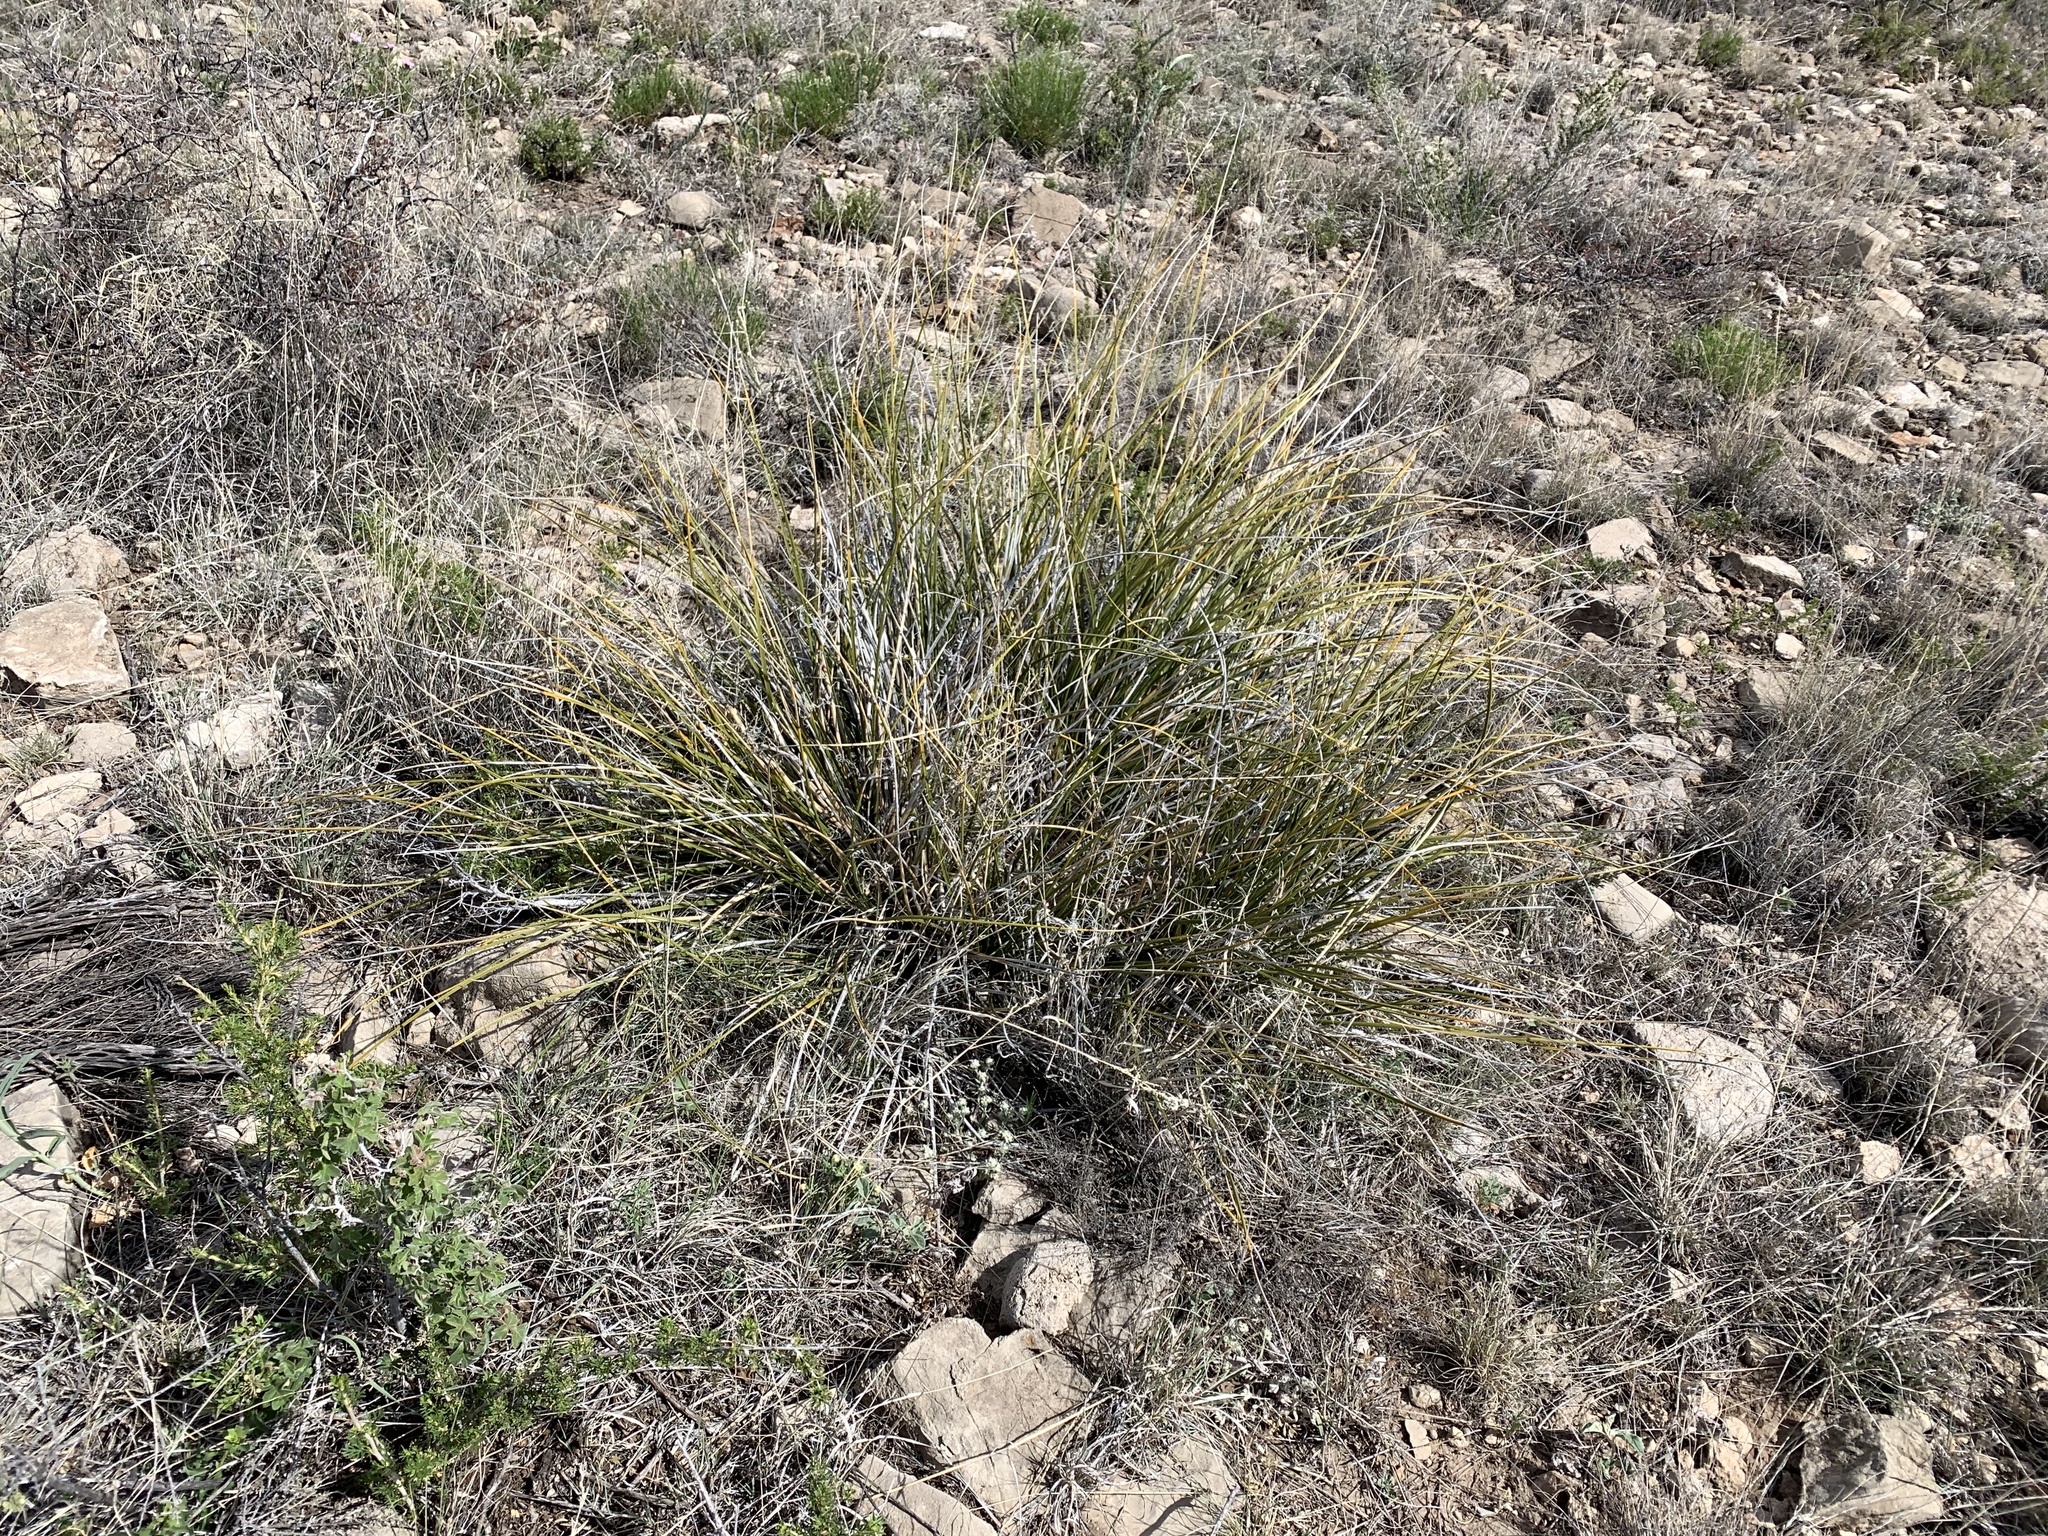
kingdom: Plantae
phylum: Tracheophyta
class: Liliopsida
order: Asparagales
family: Asparagaceae
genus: Nolina
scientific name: Nolina texana
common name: Texas sacahuiste
